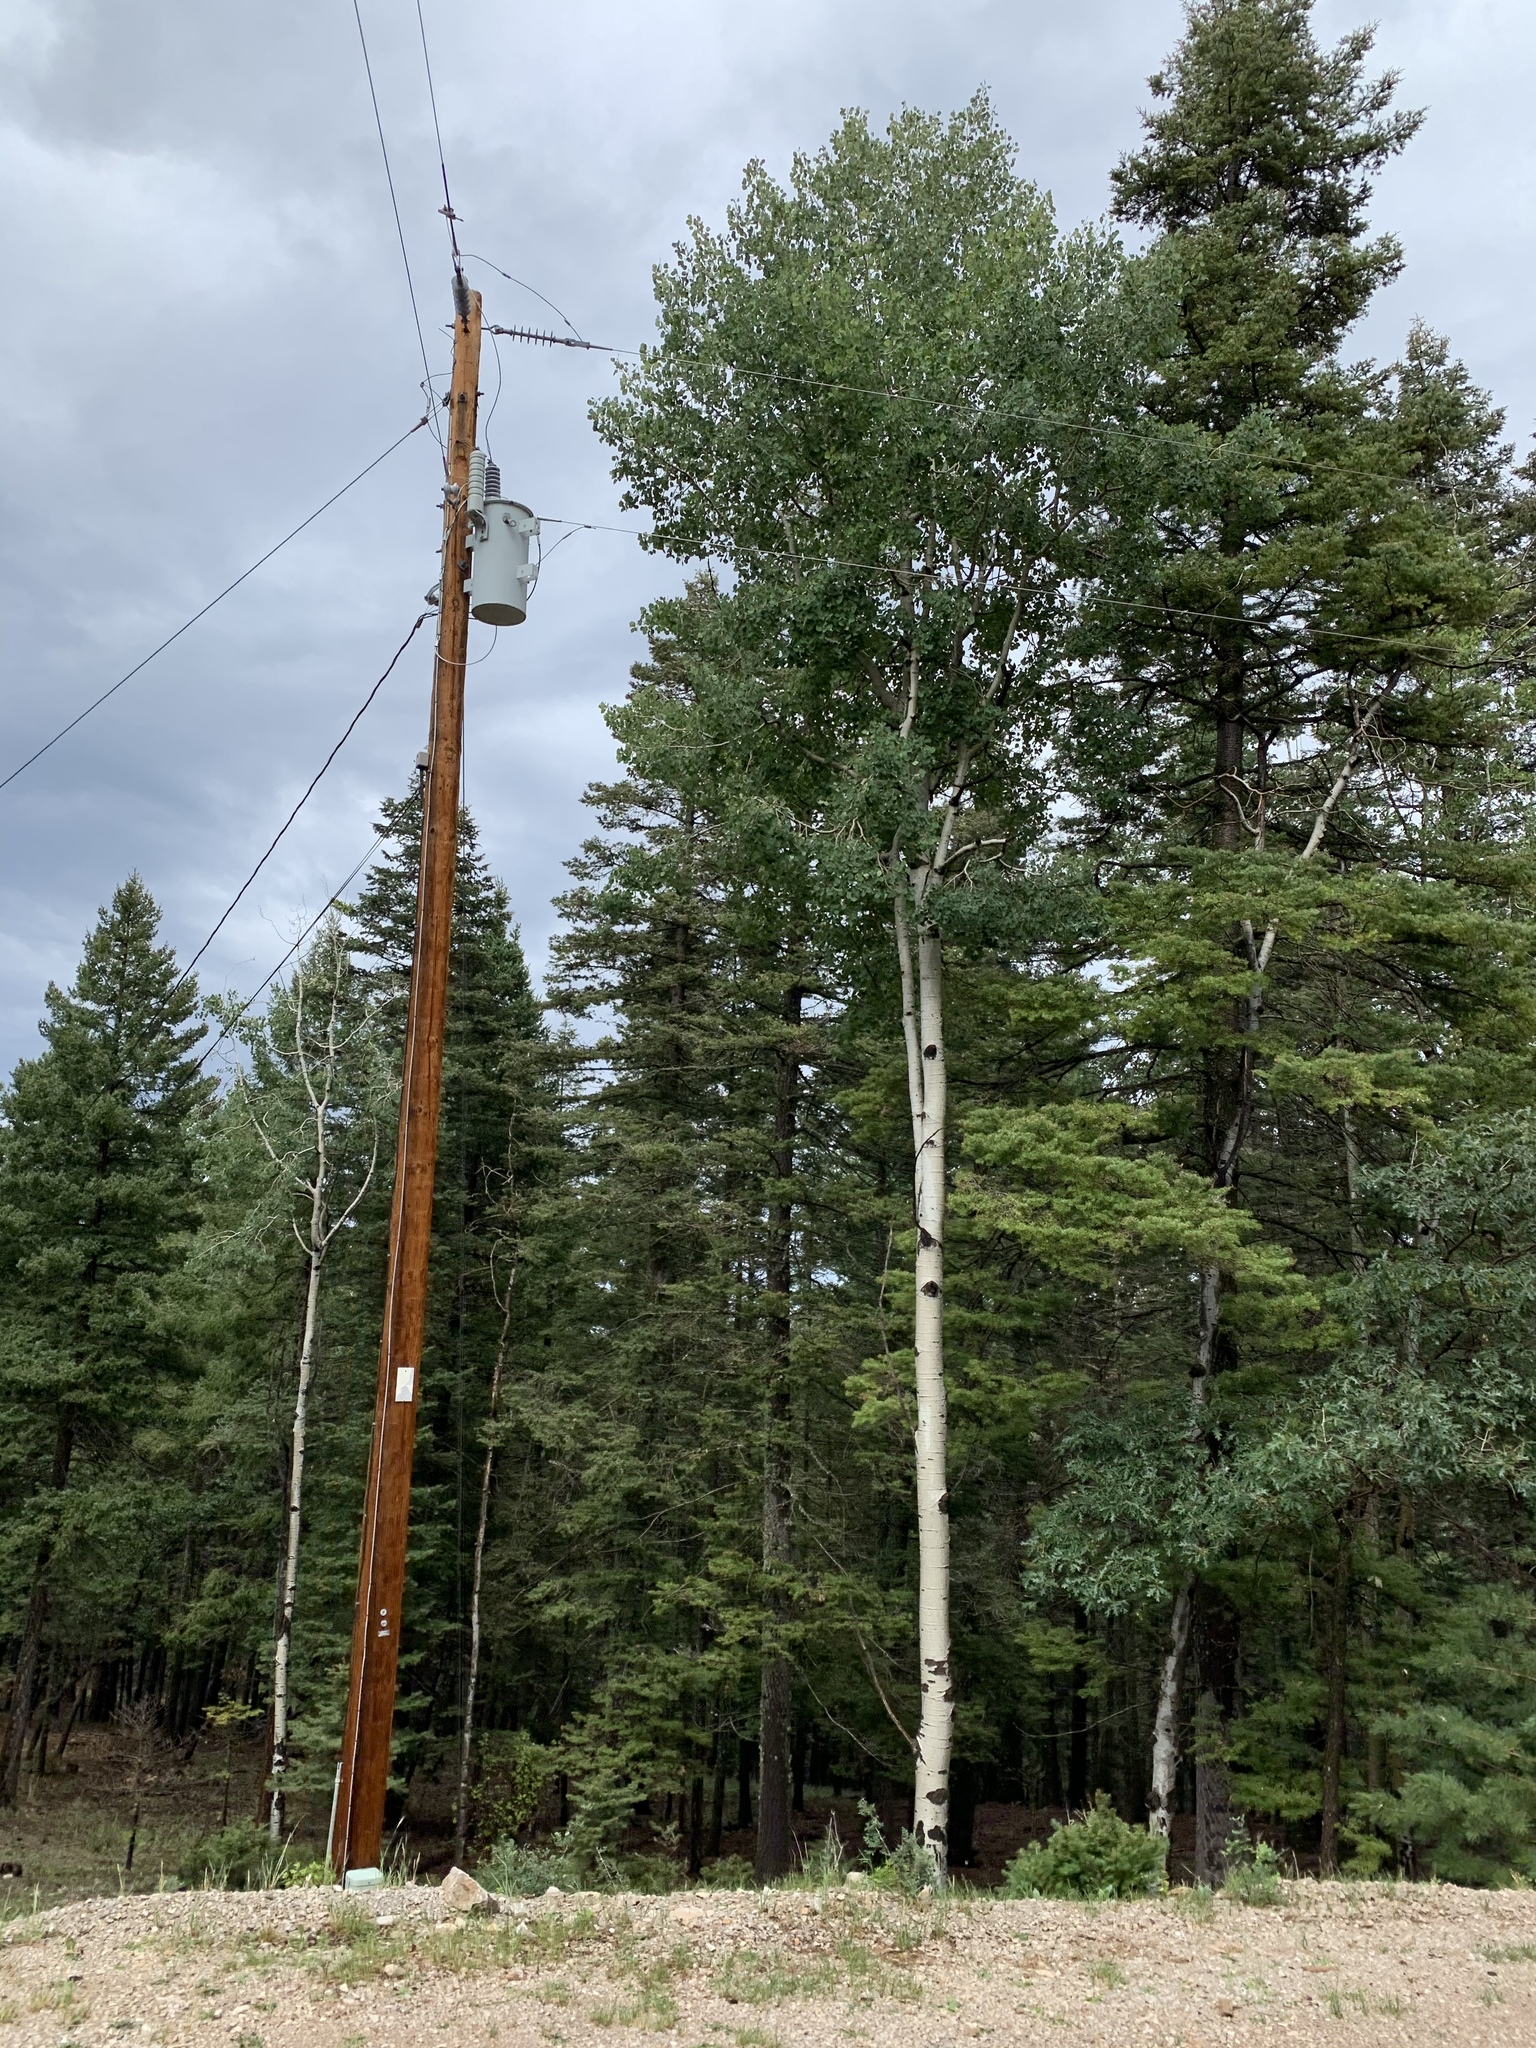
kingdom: Plantae
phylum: Tracheophyta
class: Magnoliopsida
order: Malpighiales
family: Salicaceae
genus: Populus
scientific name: Populus tremuloides
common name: Quaking aspen
